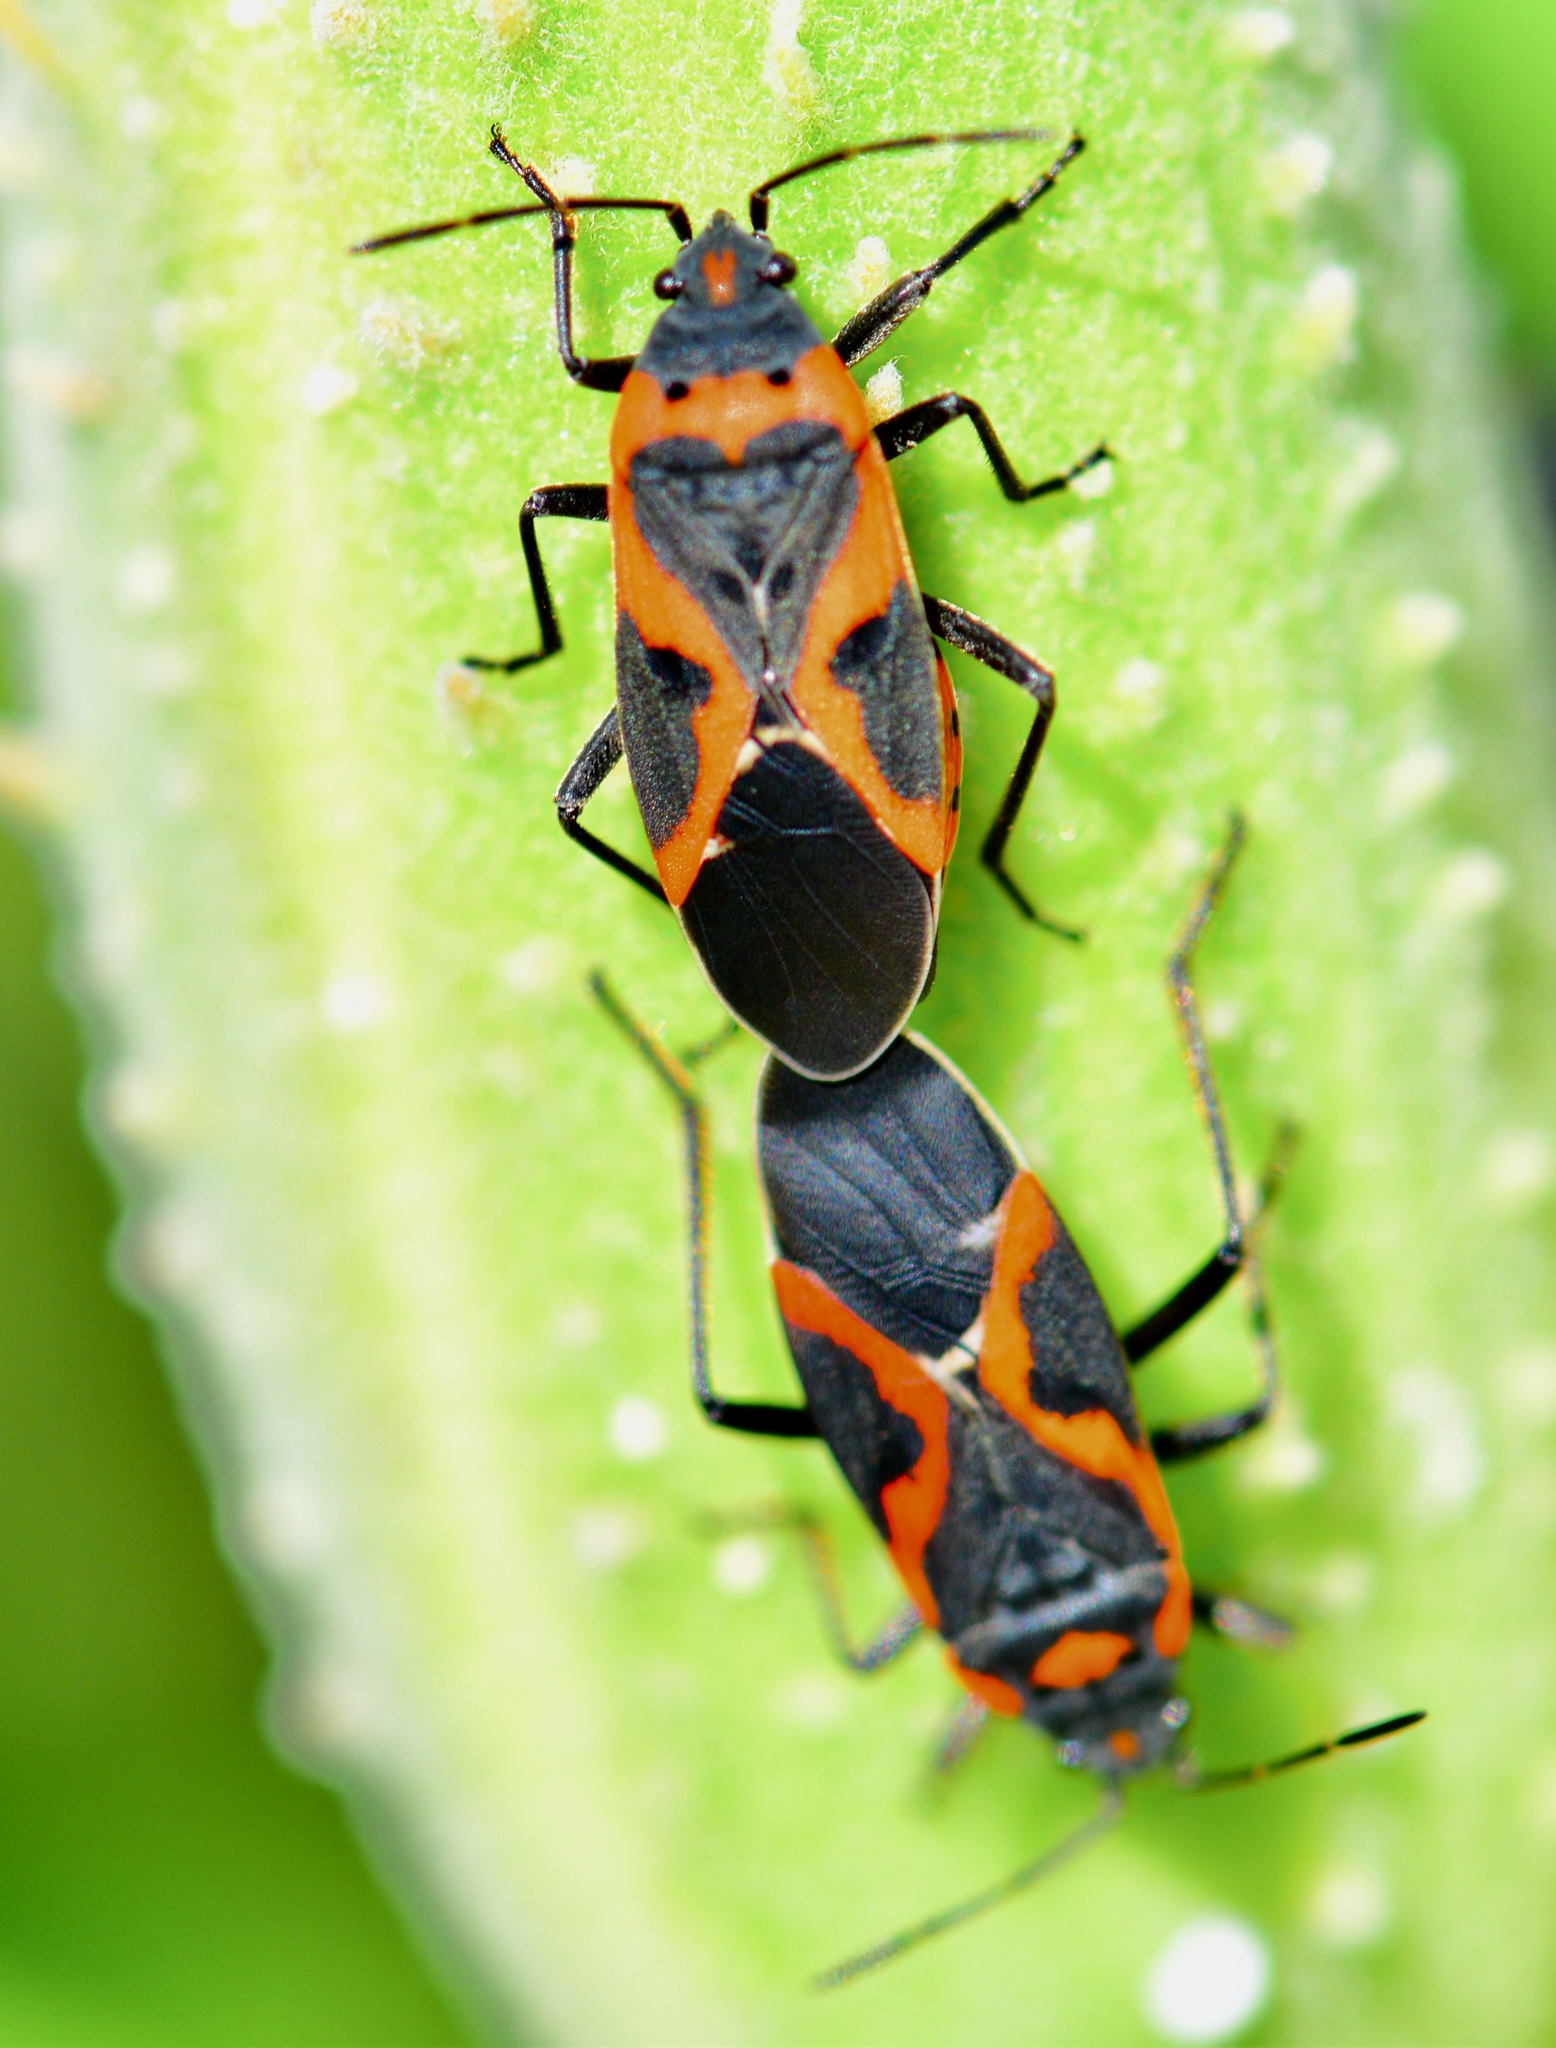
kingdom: Animalia
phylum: Arthropoda
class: Insecta
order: Hemiptera
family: Lygaeidae
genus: Lygaeus
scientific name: Lygaeus kalmii
